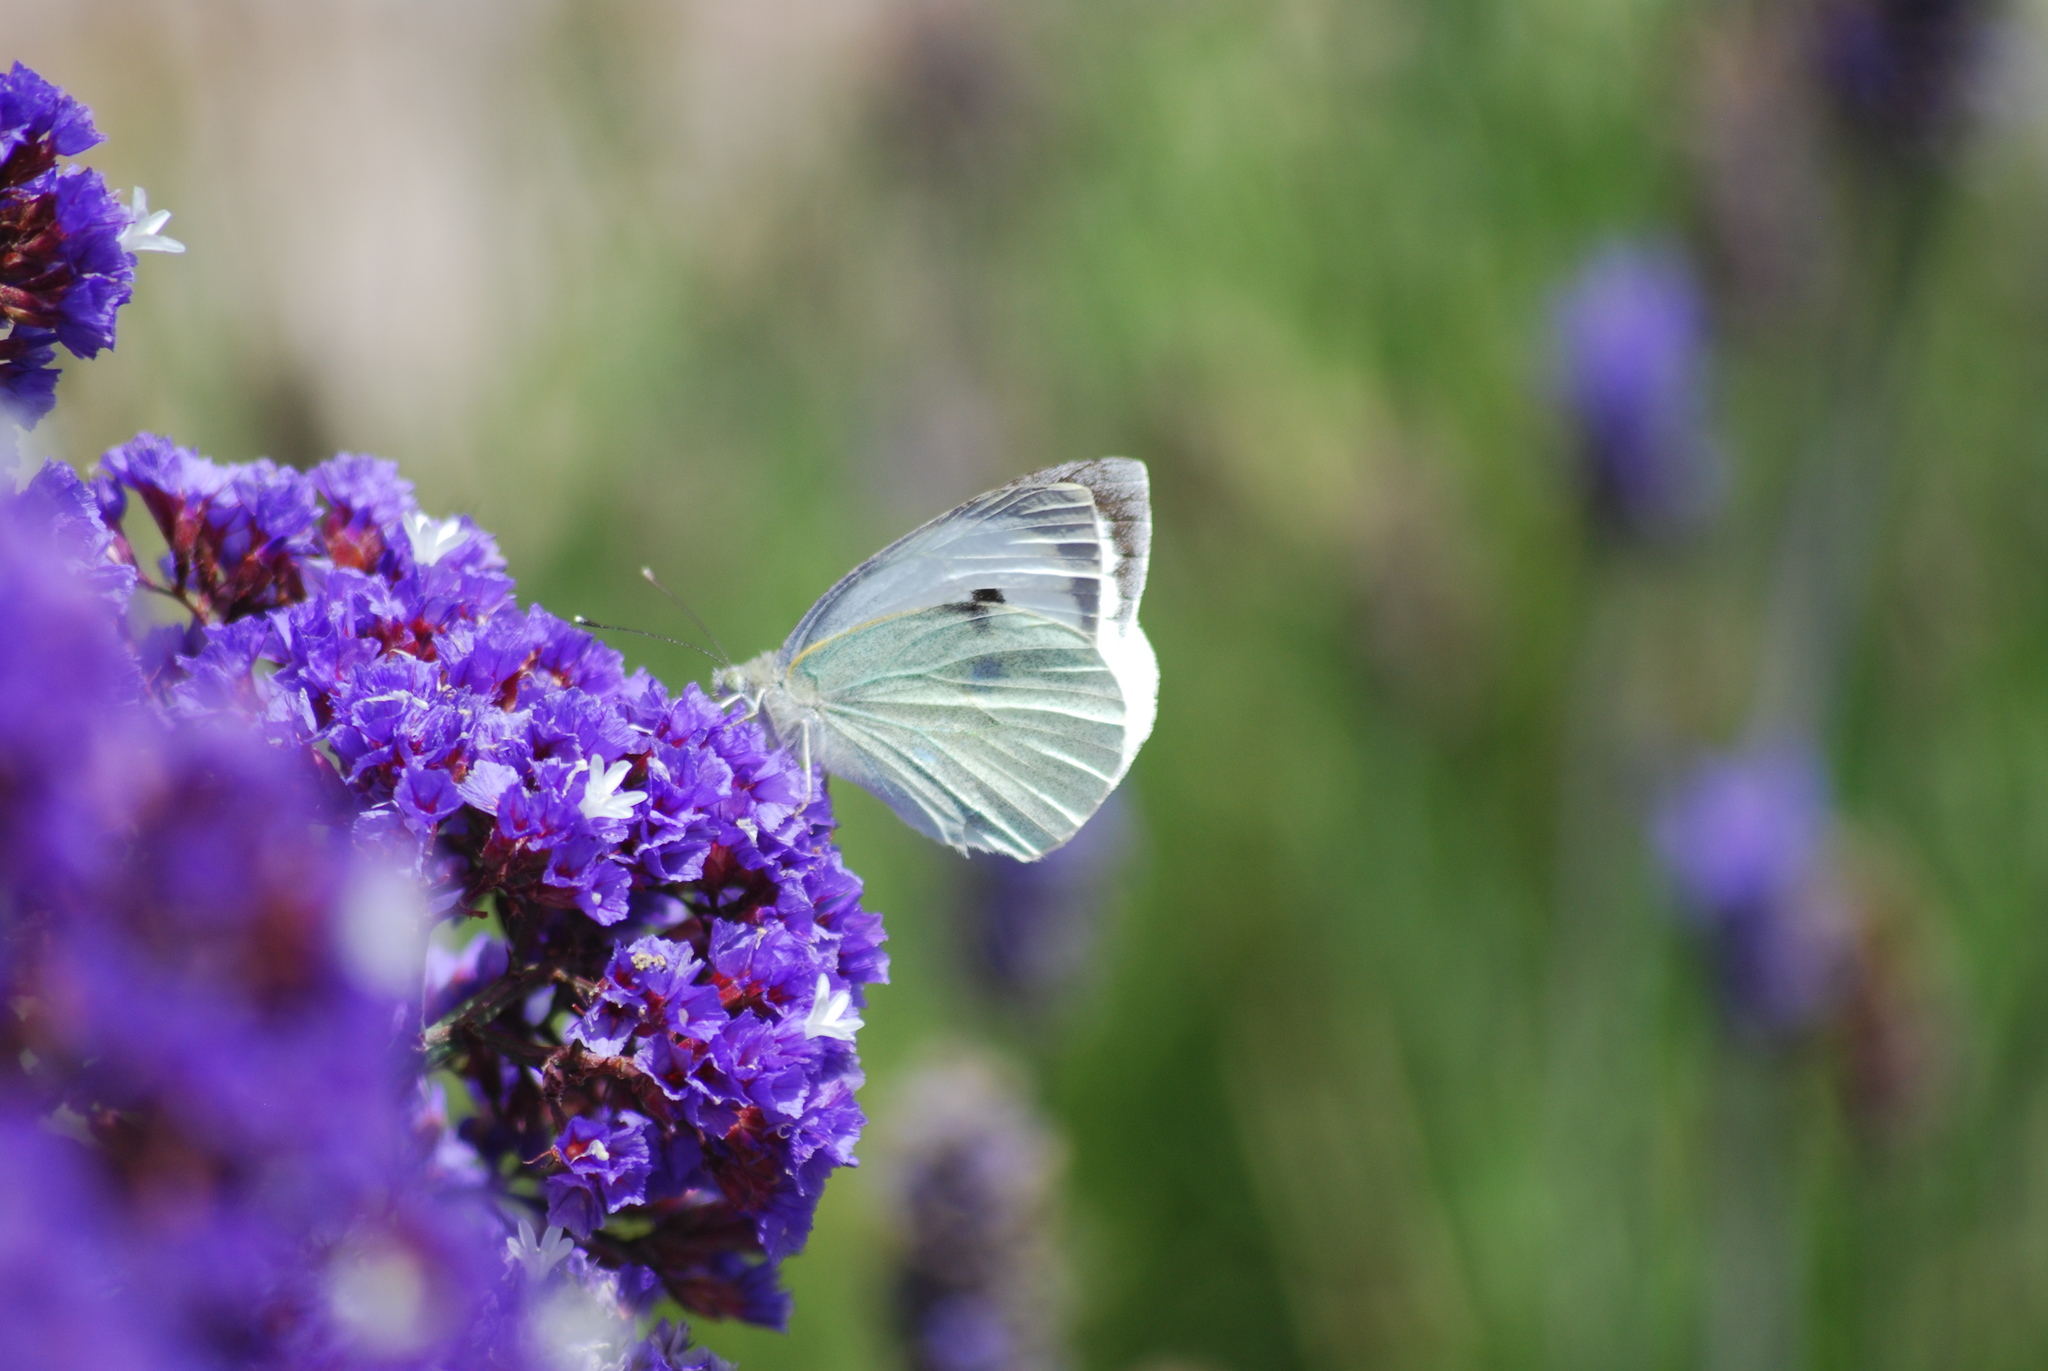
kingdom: Animalia
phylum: Arthropoda
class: Insecta
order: Lepidoptera
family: Pieridae
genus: Pieris
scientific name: Pieris brassicae
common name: Large white
